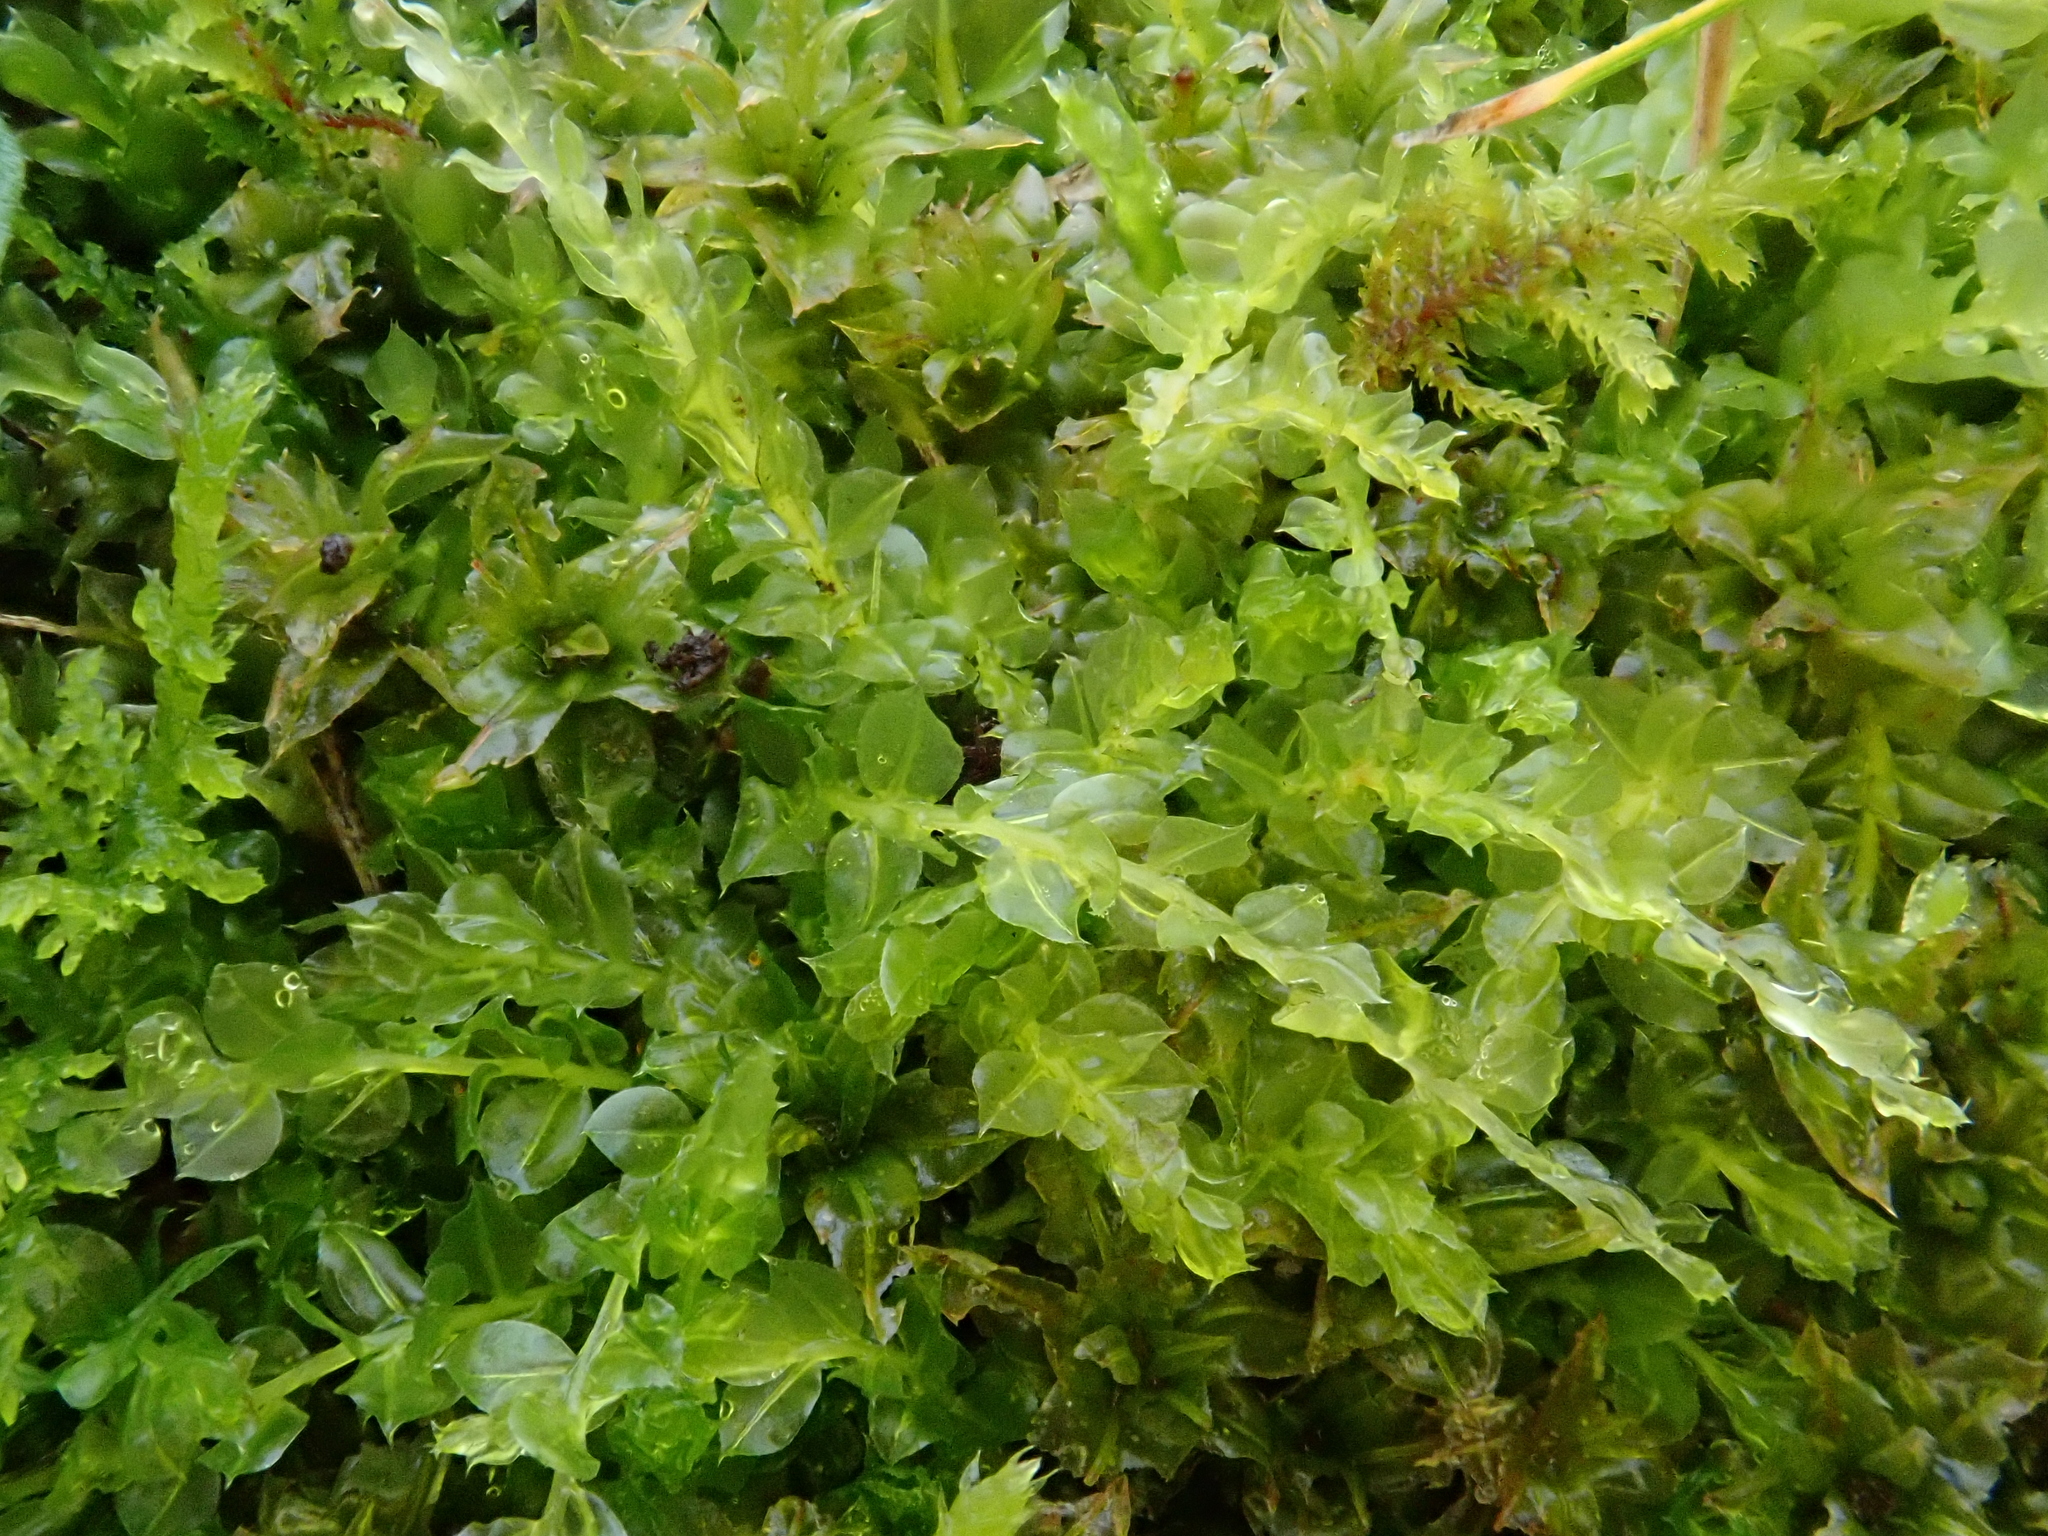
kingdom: Plantae
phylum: Bryophyta
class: Bryopsida
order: Bryales
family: Mniaceae
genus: Plagiomnium
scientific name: Plagiomnium cuspidatum
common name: Woodsy leafy moss
